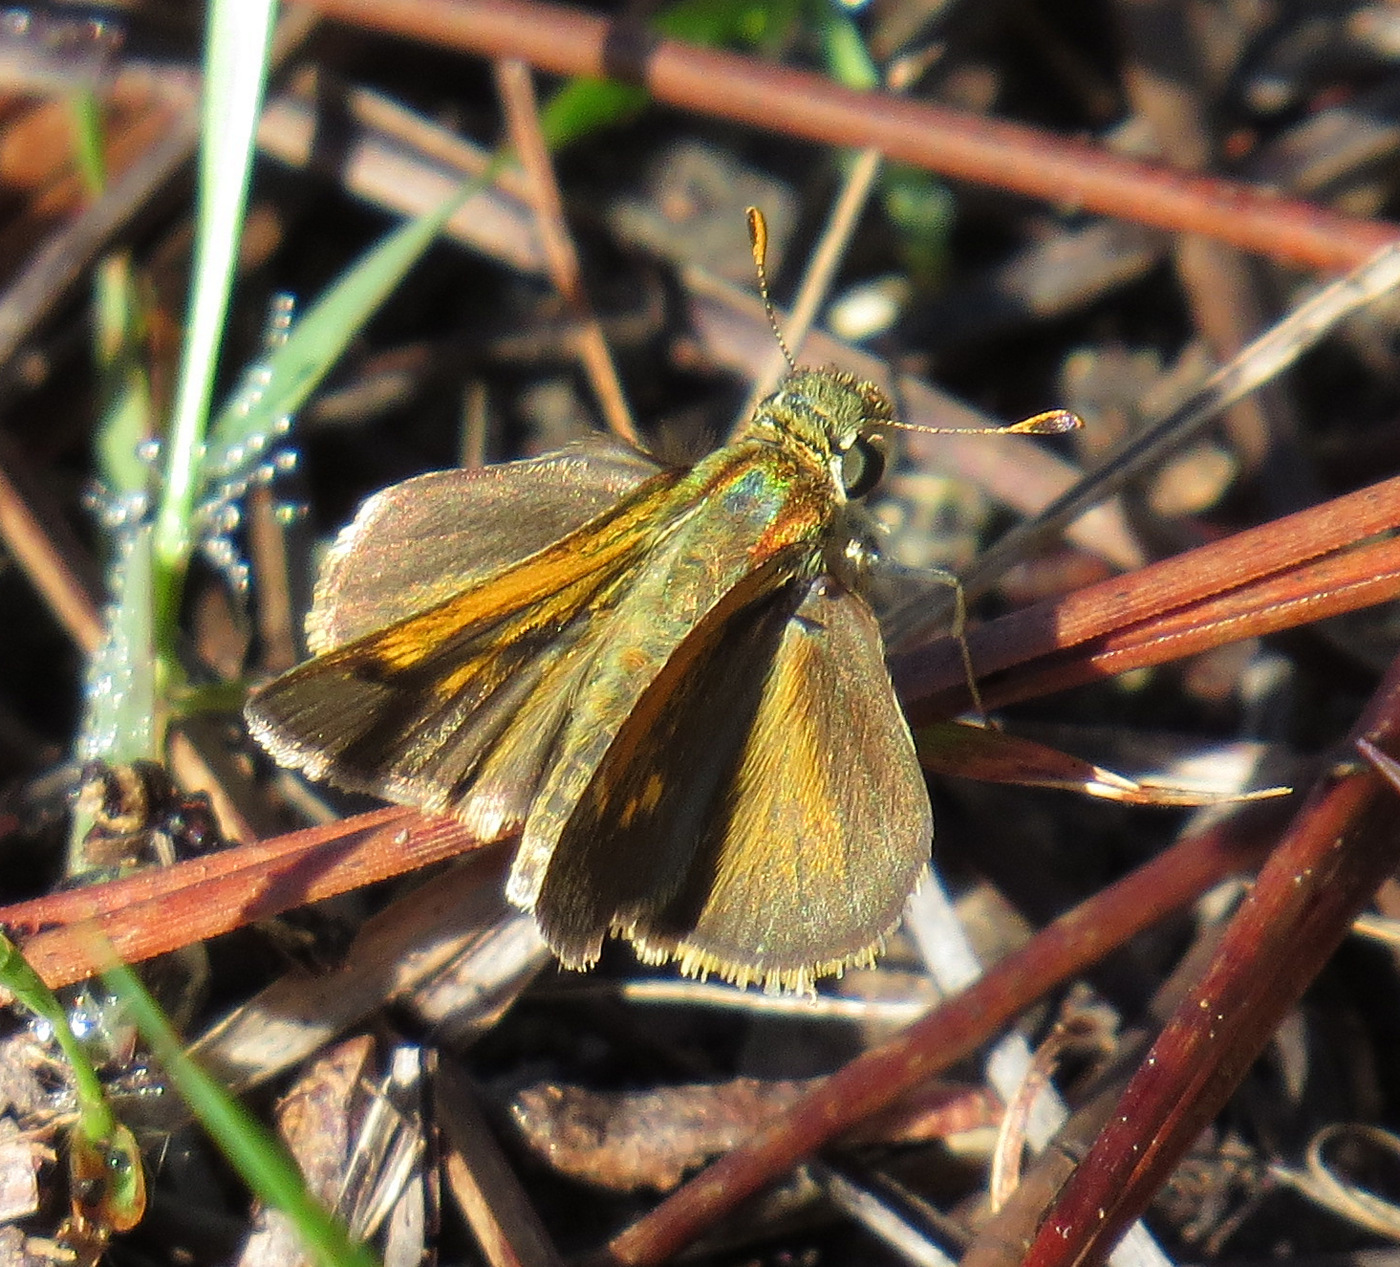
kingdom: Animalia
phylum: Arthropoda
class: Insecta
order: Lepidoptera
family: Hesperiidae
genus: Polites
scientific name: Polites baracoa
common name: Baracoa skipper
